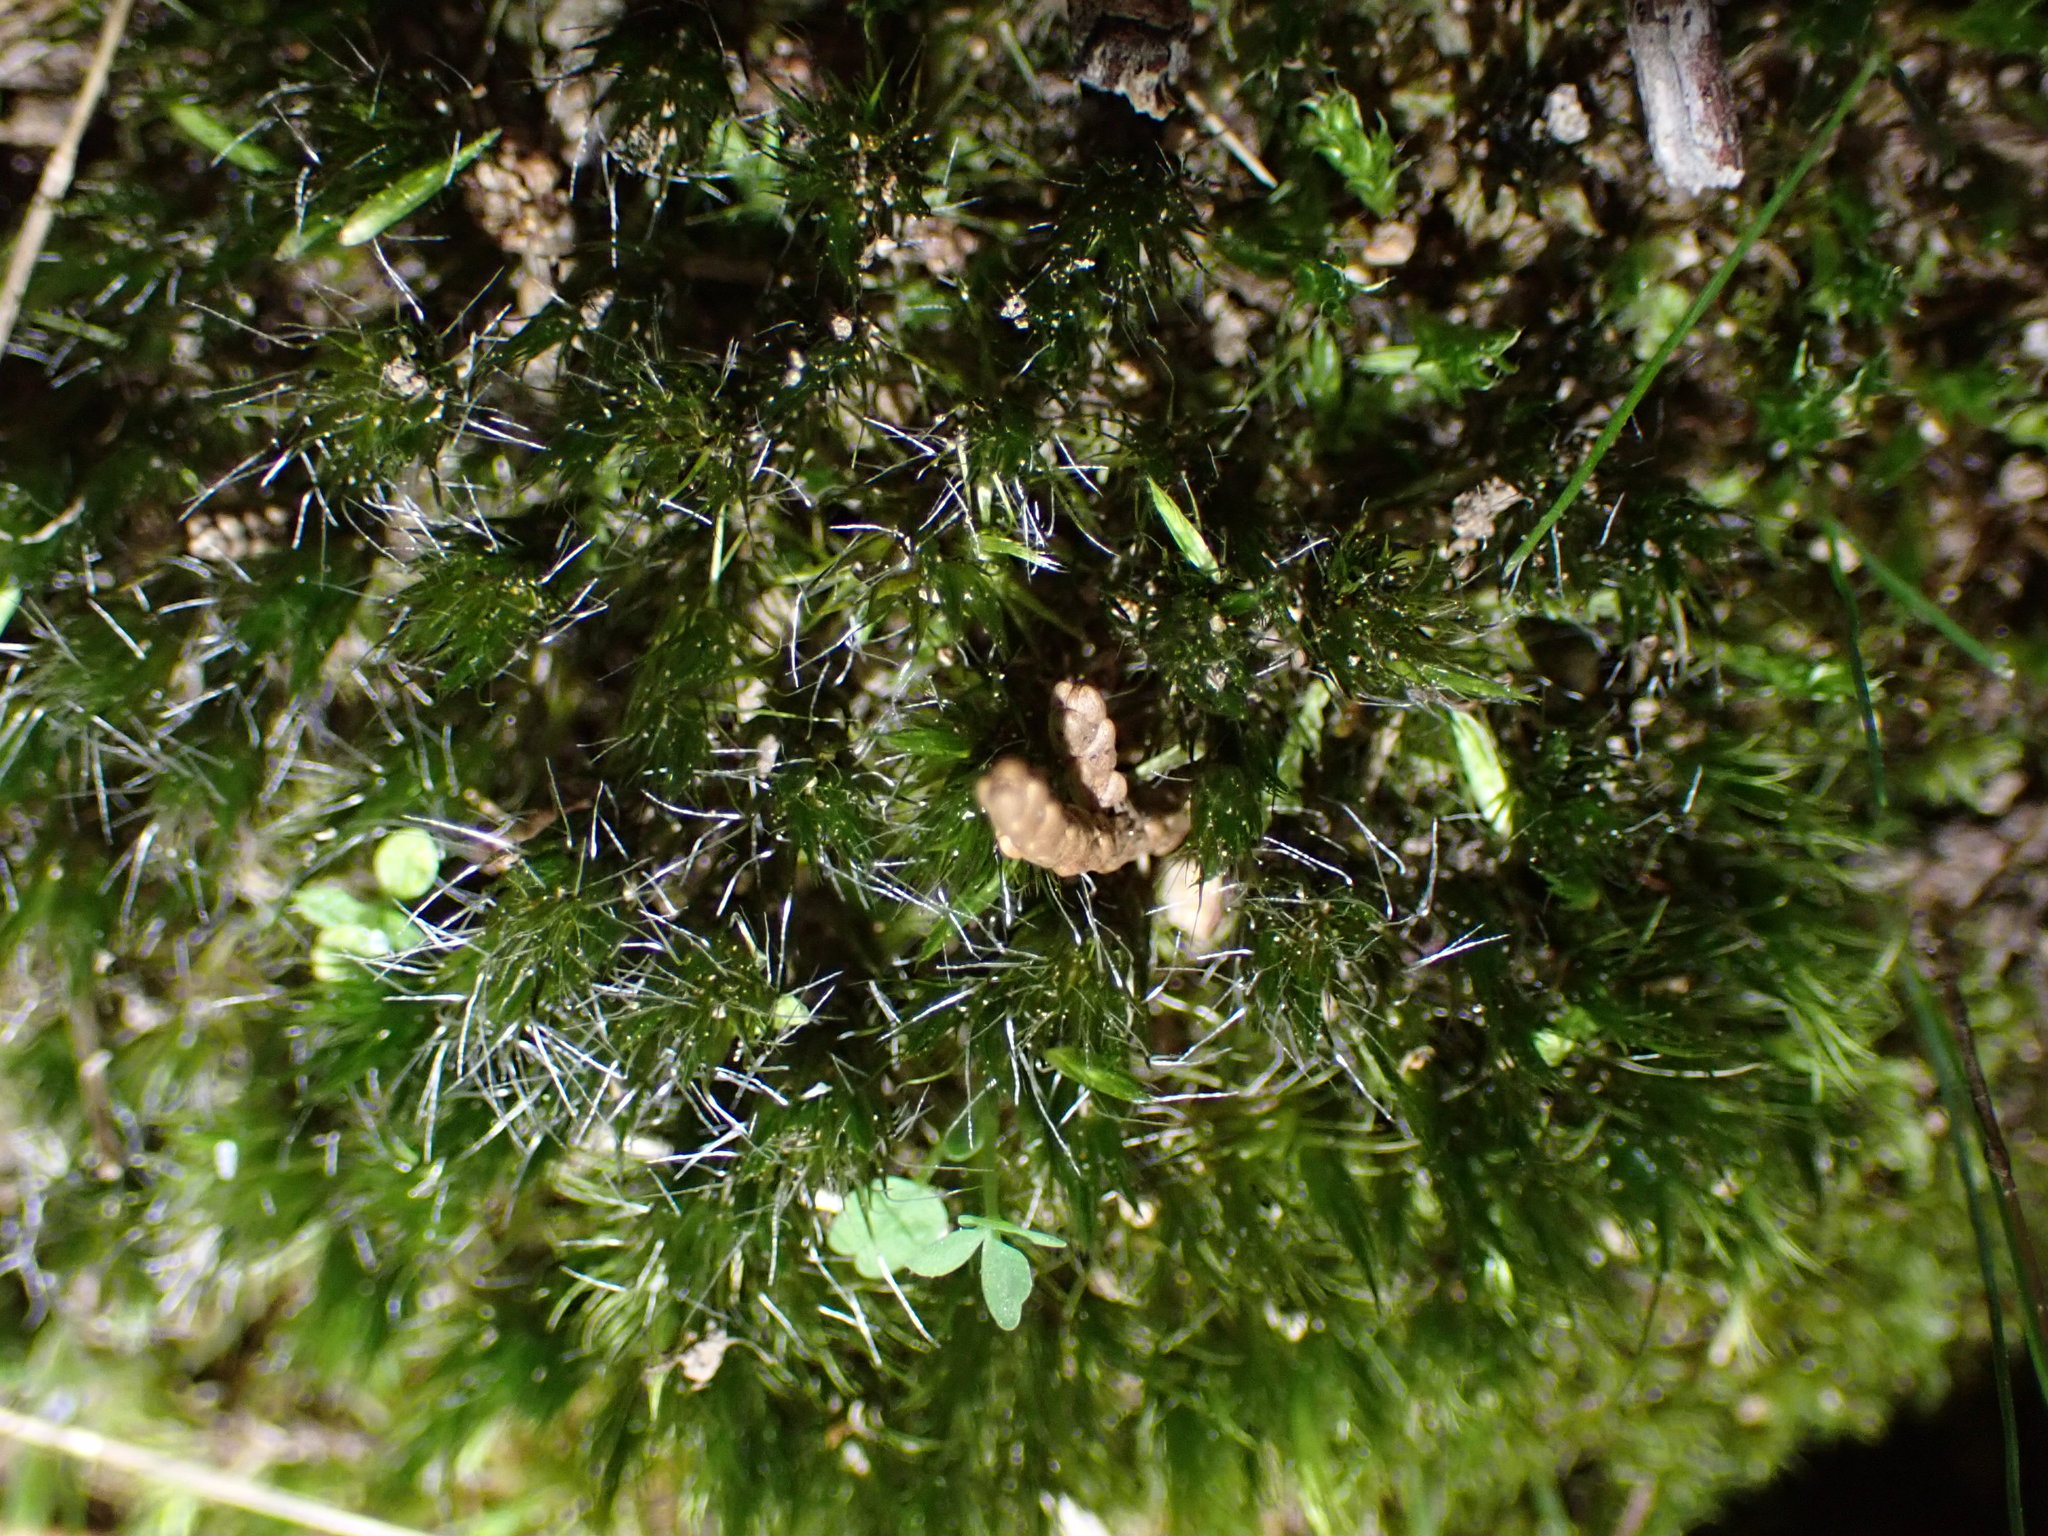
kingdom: Plantae
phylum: Bryophyta
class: Bryopsida
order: Dicranales
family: Leucobryaceae
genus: Campylopus
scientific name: Campylopus introflexus
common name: Heath star moss
